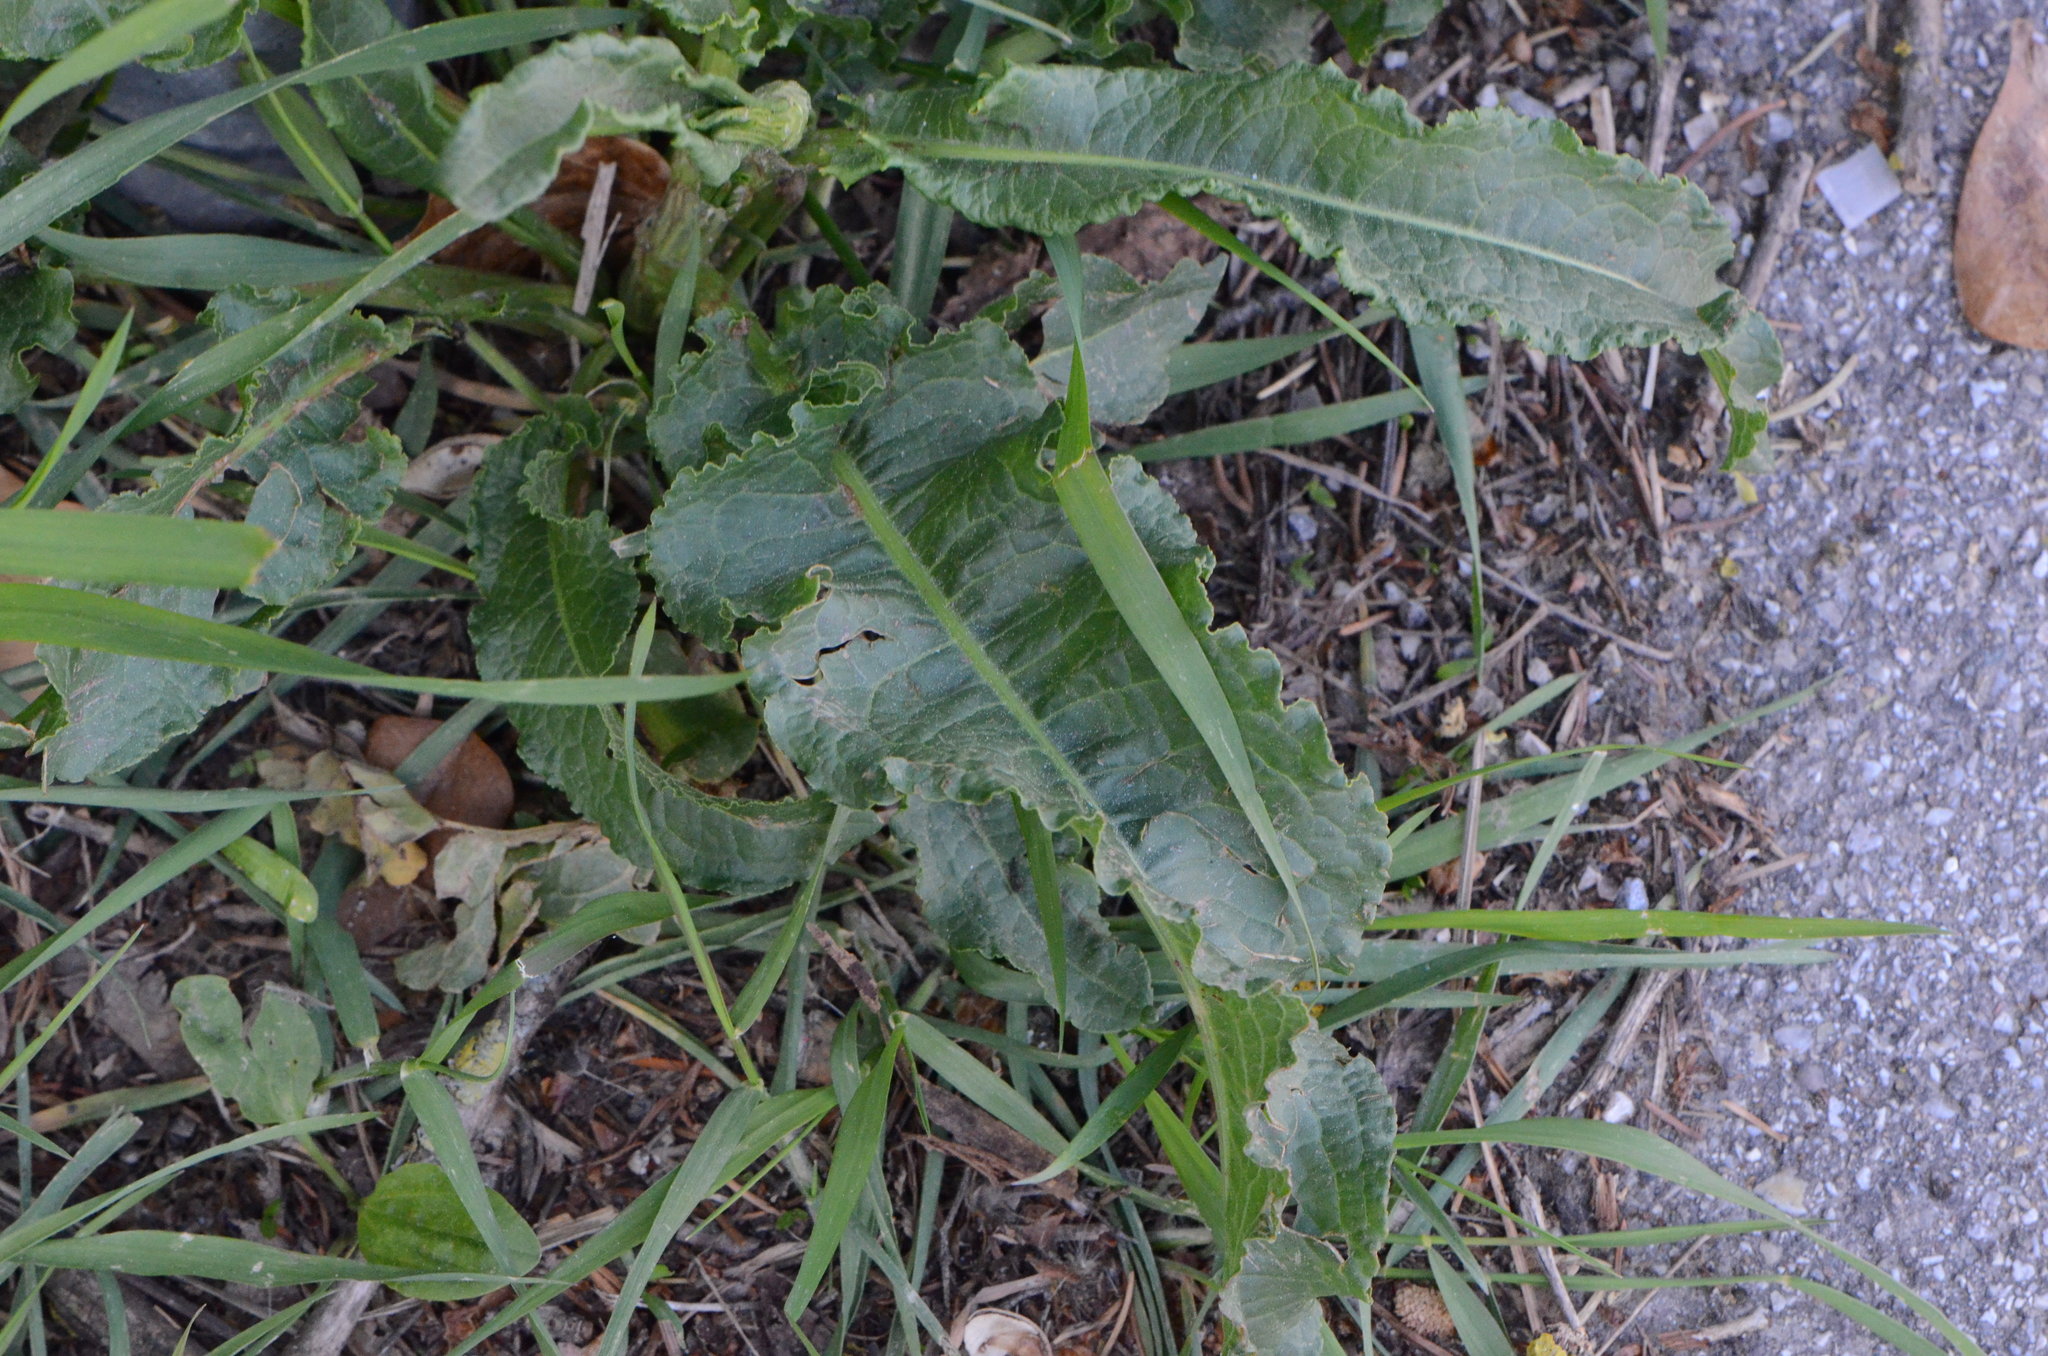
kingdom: Plantae
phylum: Tracheophyta
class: Magnoliopsida
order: Caryophyllales
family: Polygonaceae
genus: Rumex
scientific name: Rumex crispus
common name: Curled dock
